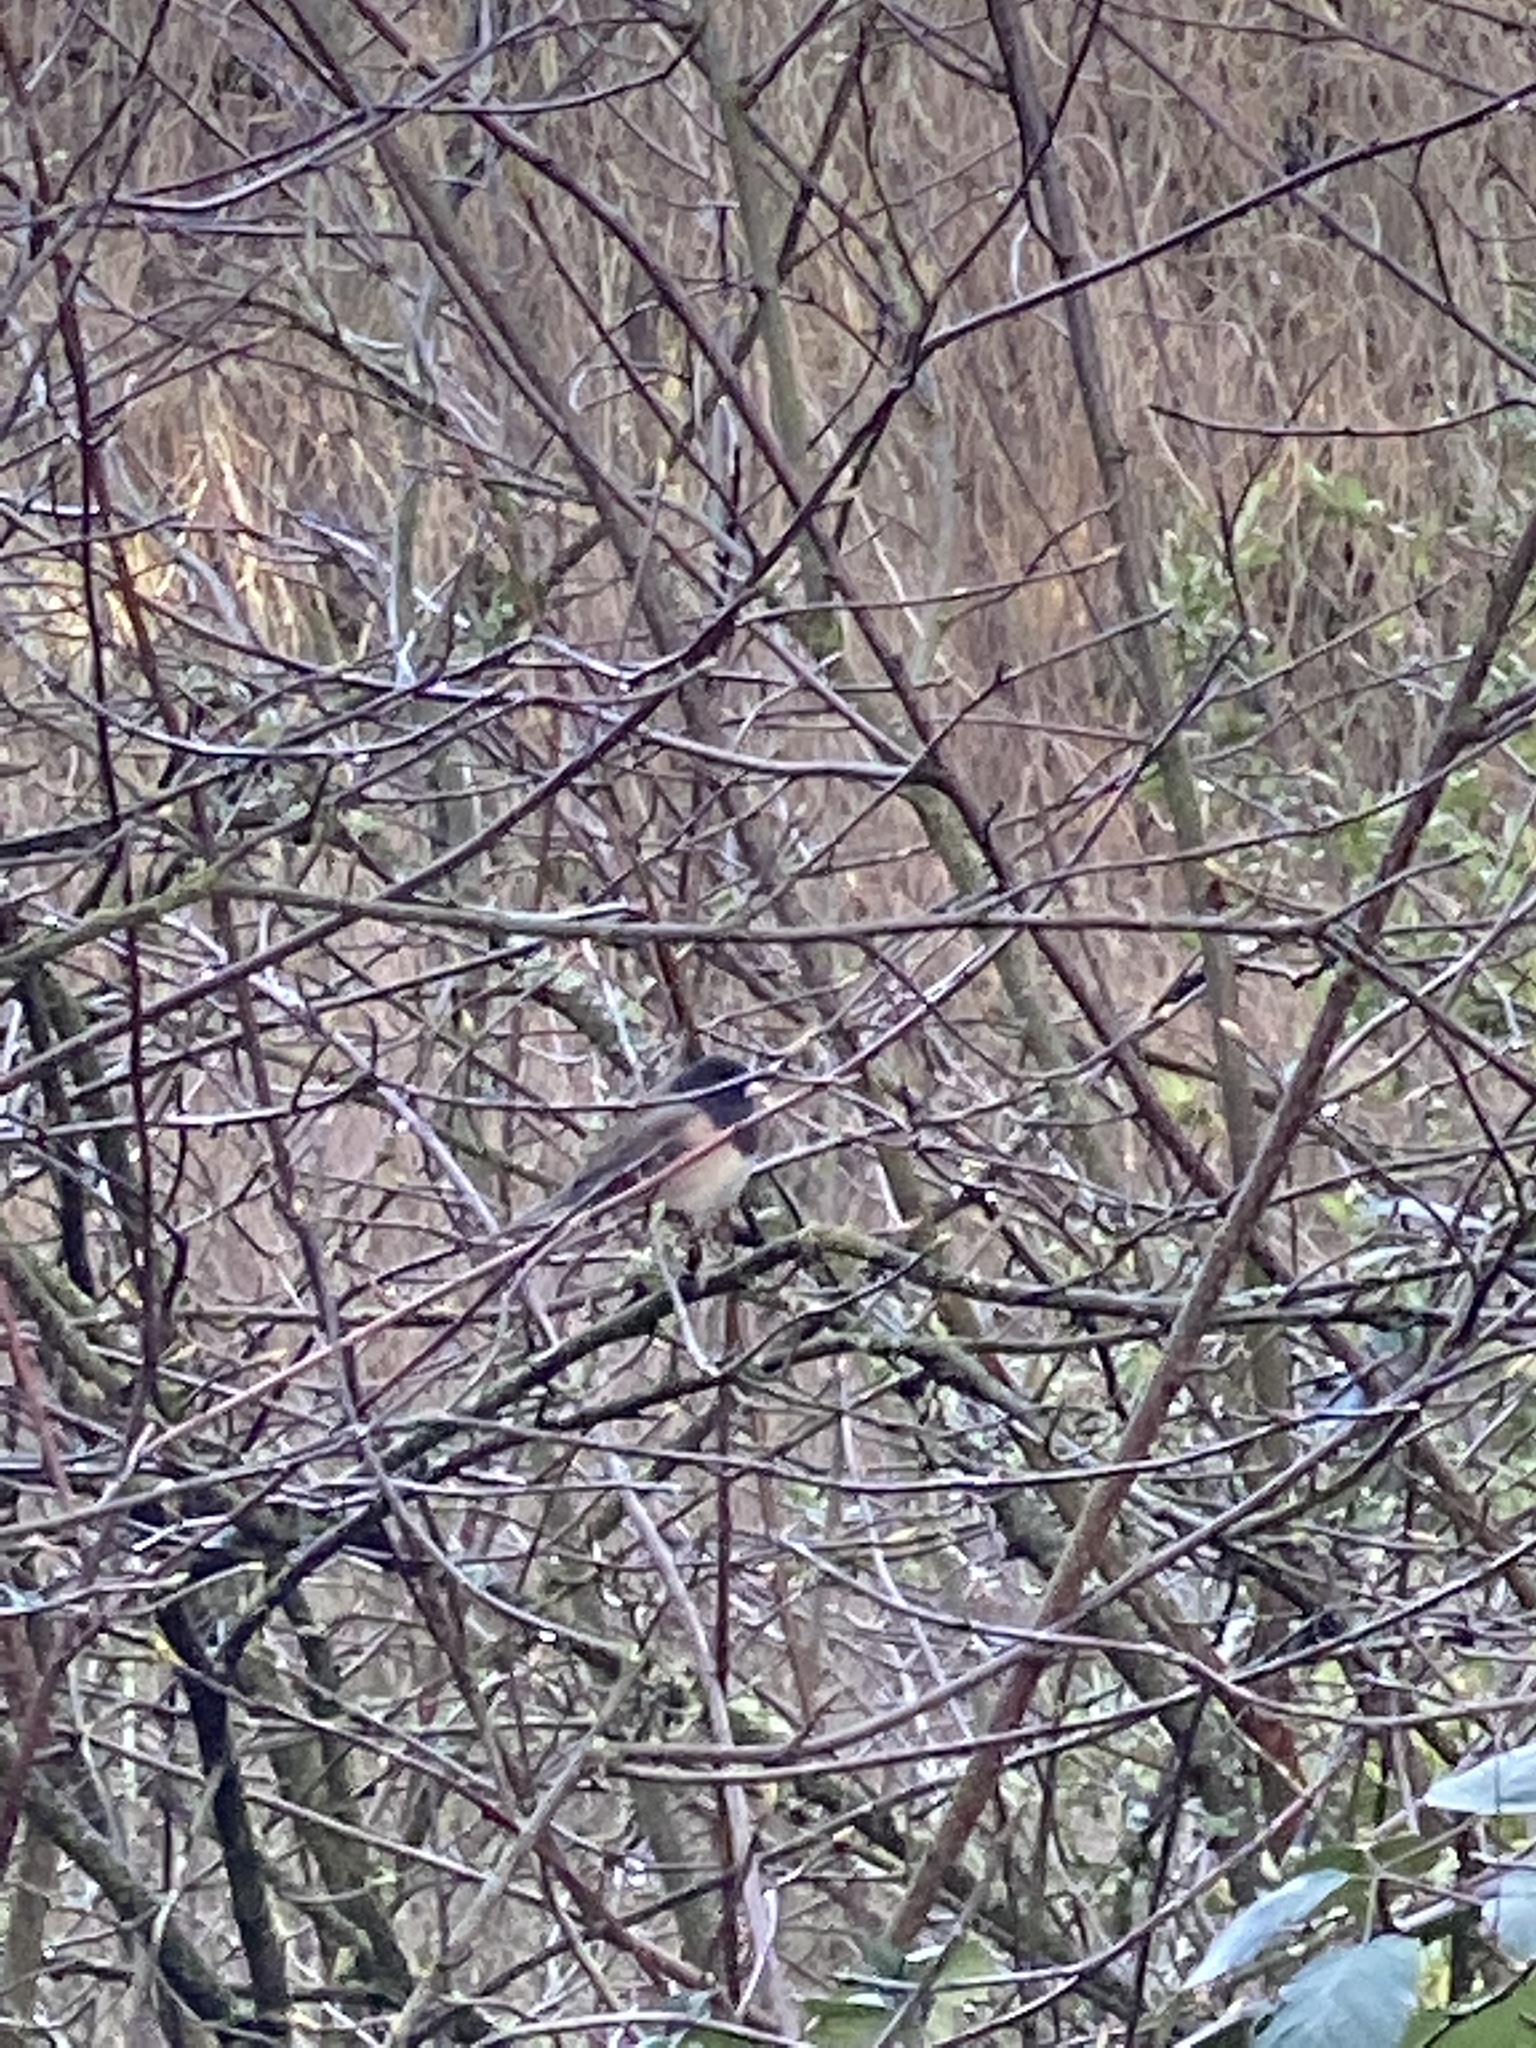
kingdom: Animalia
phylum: Chordata
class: Aves
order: Passeriformes
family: Passerellidae
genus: Junco
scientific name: Junco hyemalis
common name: Dark-eyed junco
